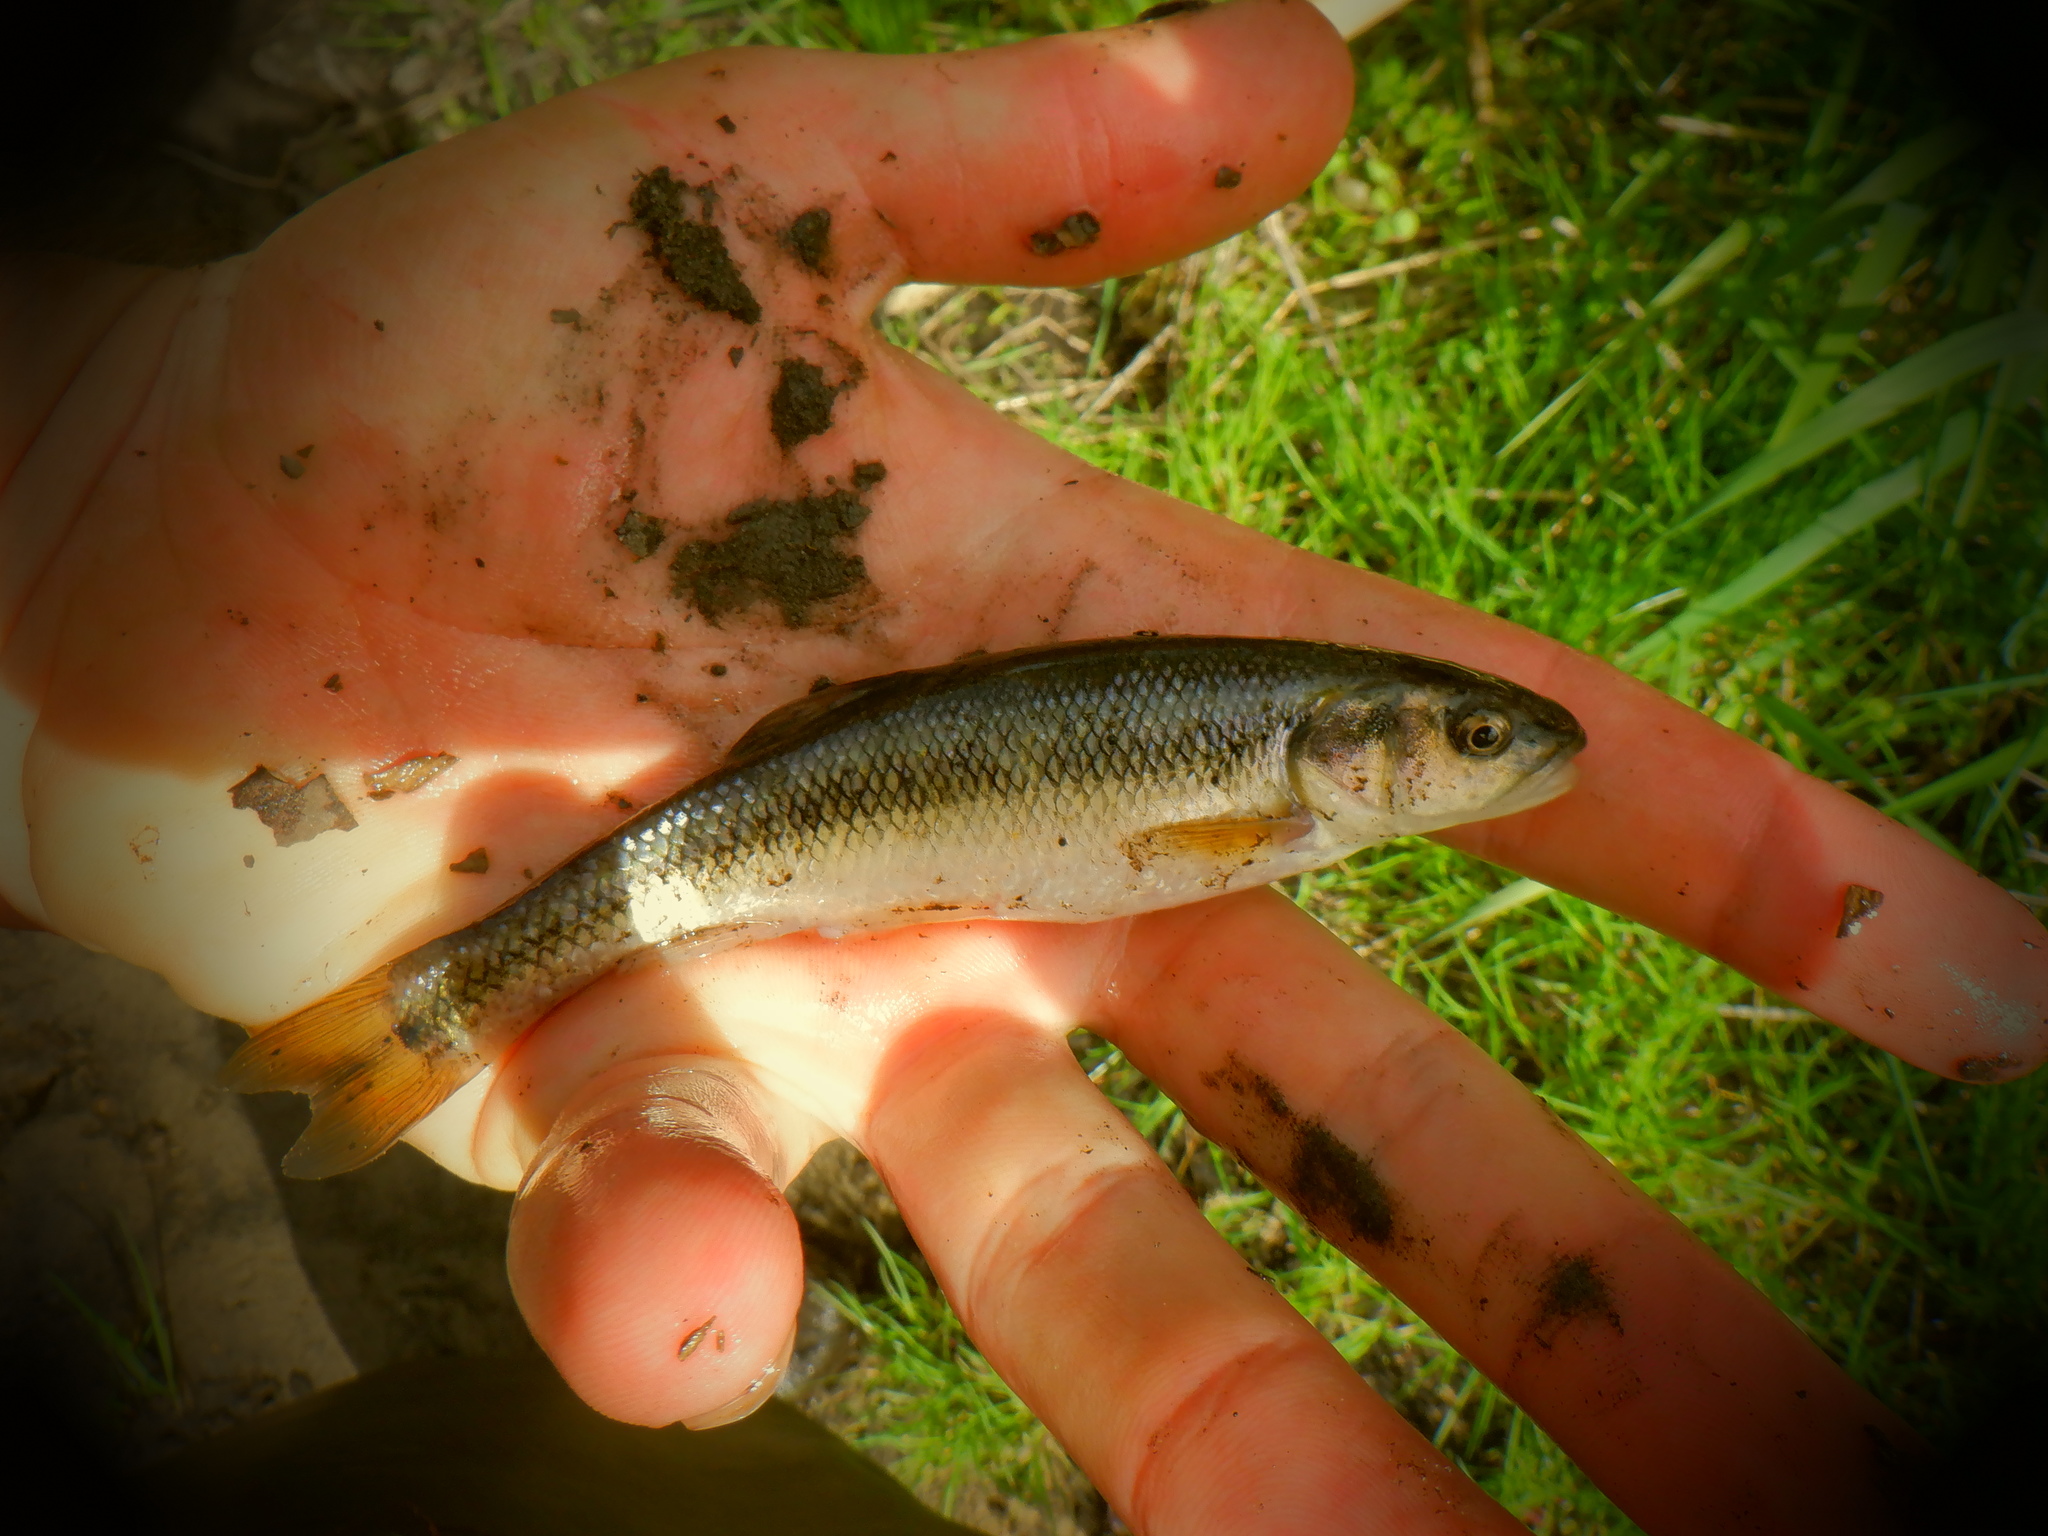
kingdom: Animalia
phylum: Chordata
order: Cypriniformes
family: Cyprinidae
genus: Semotilus
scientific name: Semotilus atromaculatus
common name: Creek chub
